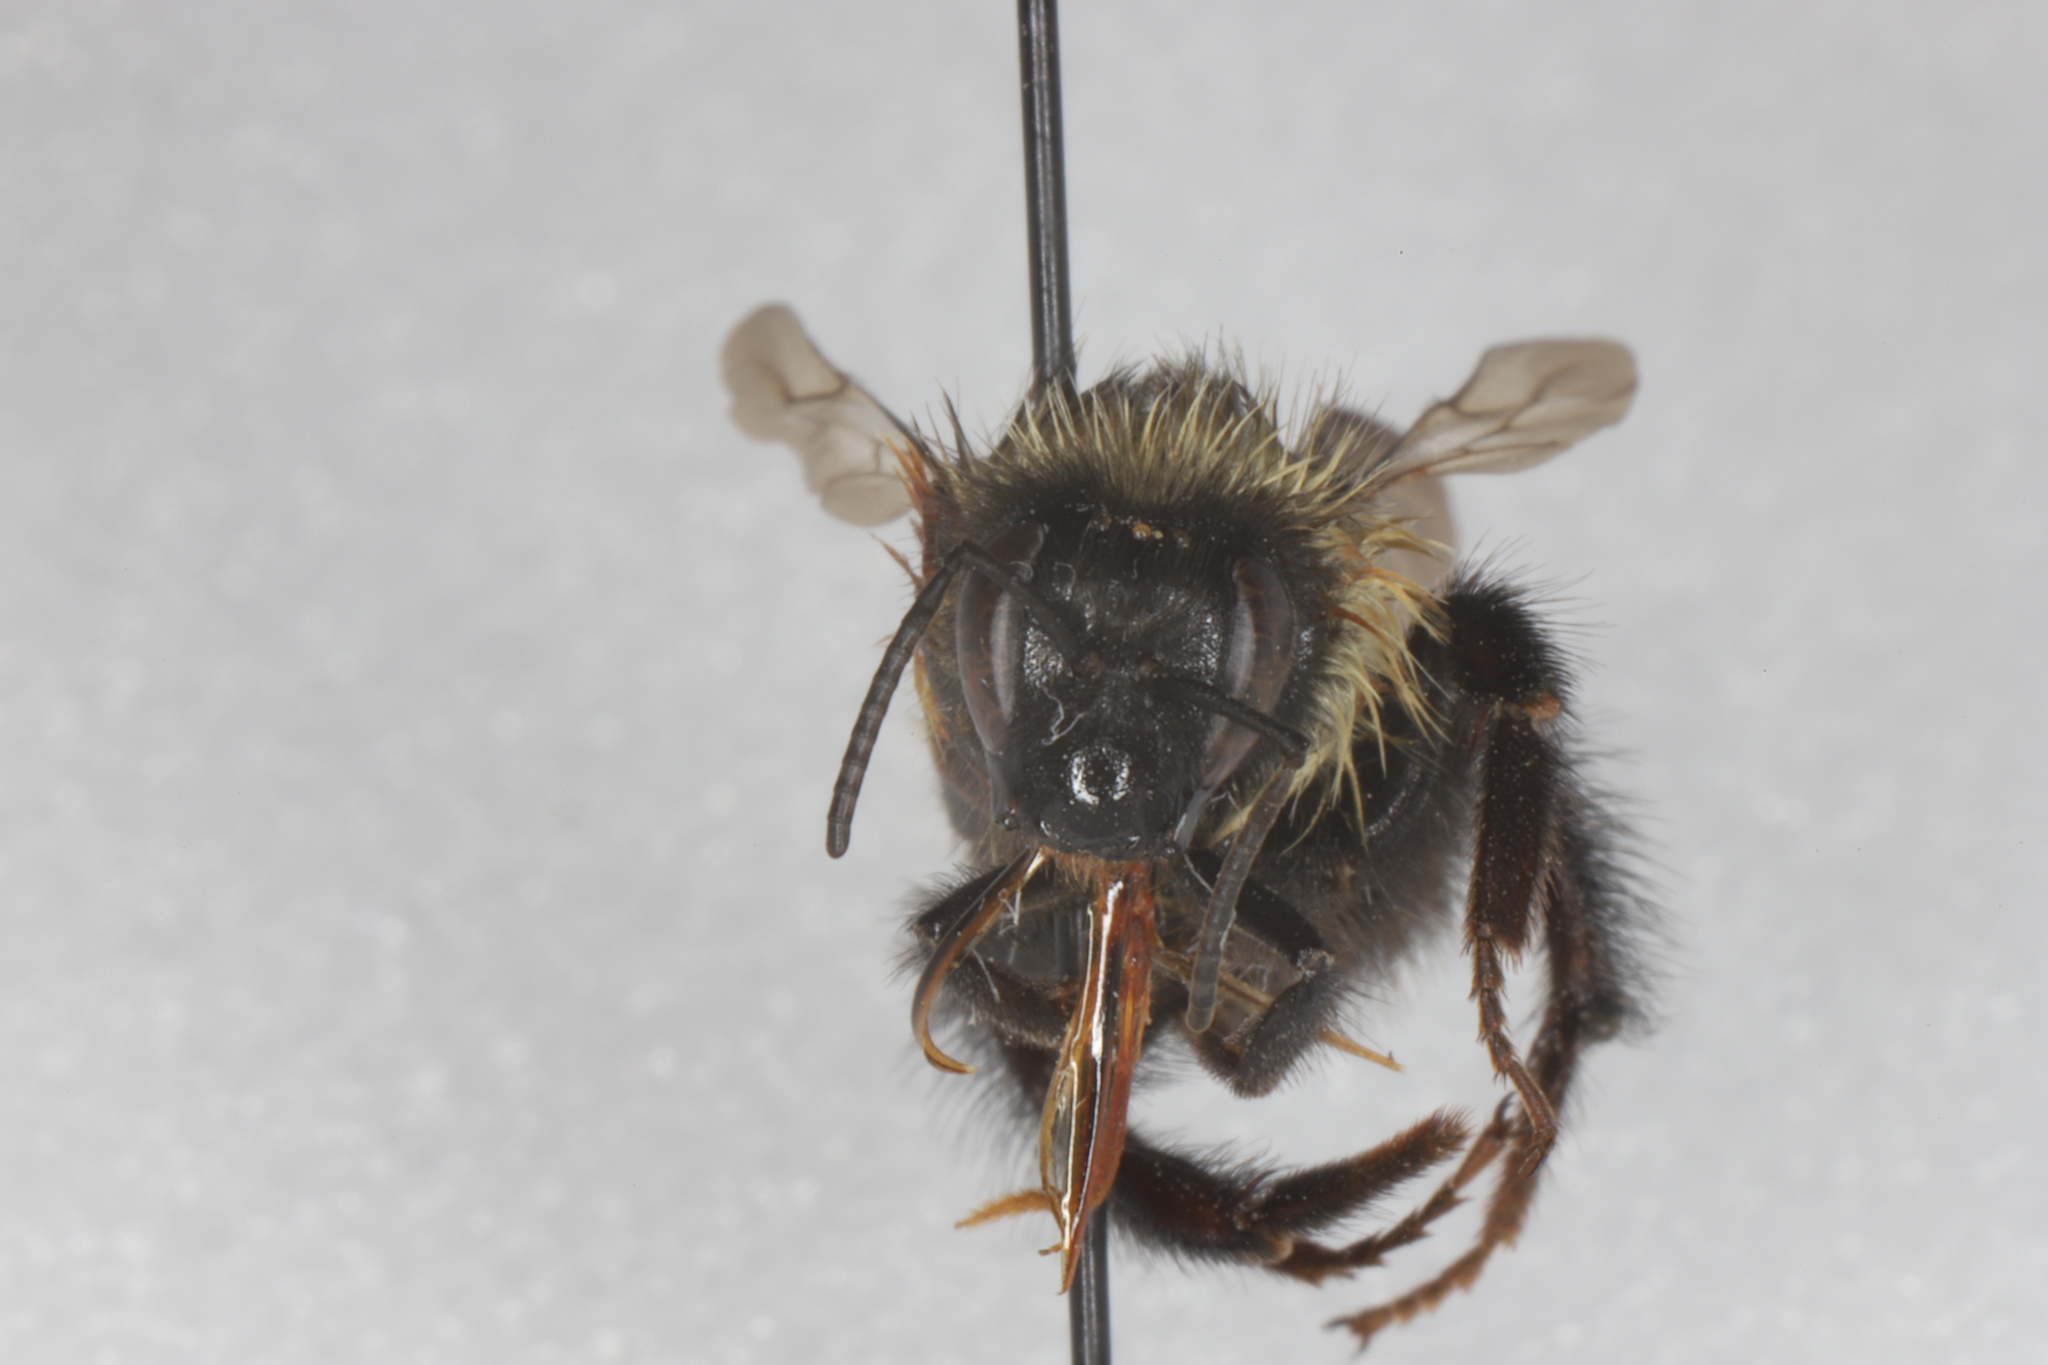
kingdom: Animalia
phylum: Arthropoda
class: Insecta
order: Hymenoptera
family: Apidae
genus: Bombus
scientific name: Bombus vagans
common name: Half-black bumble bee
